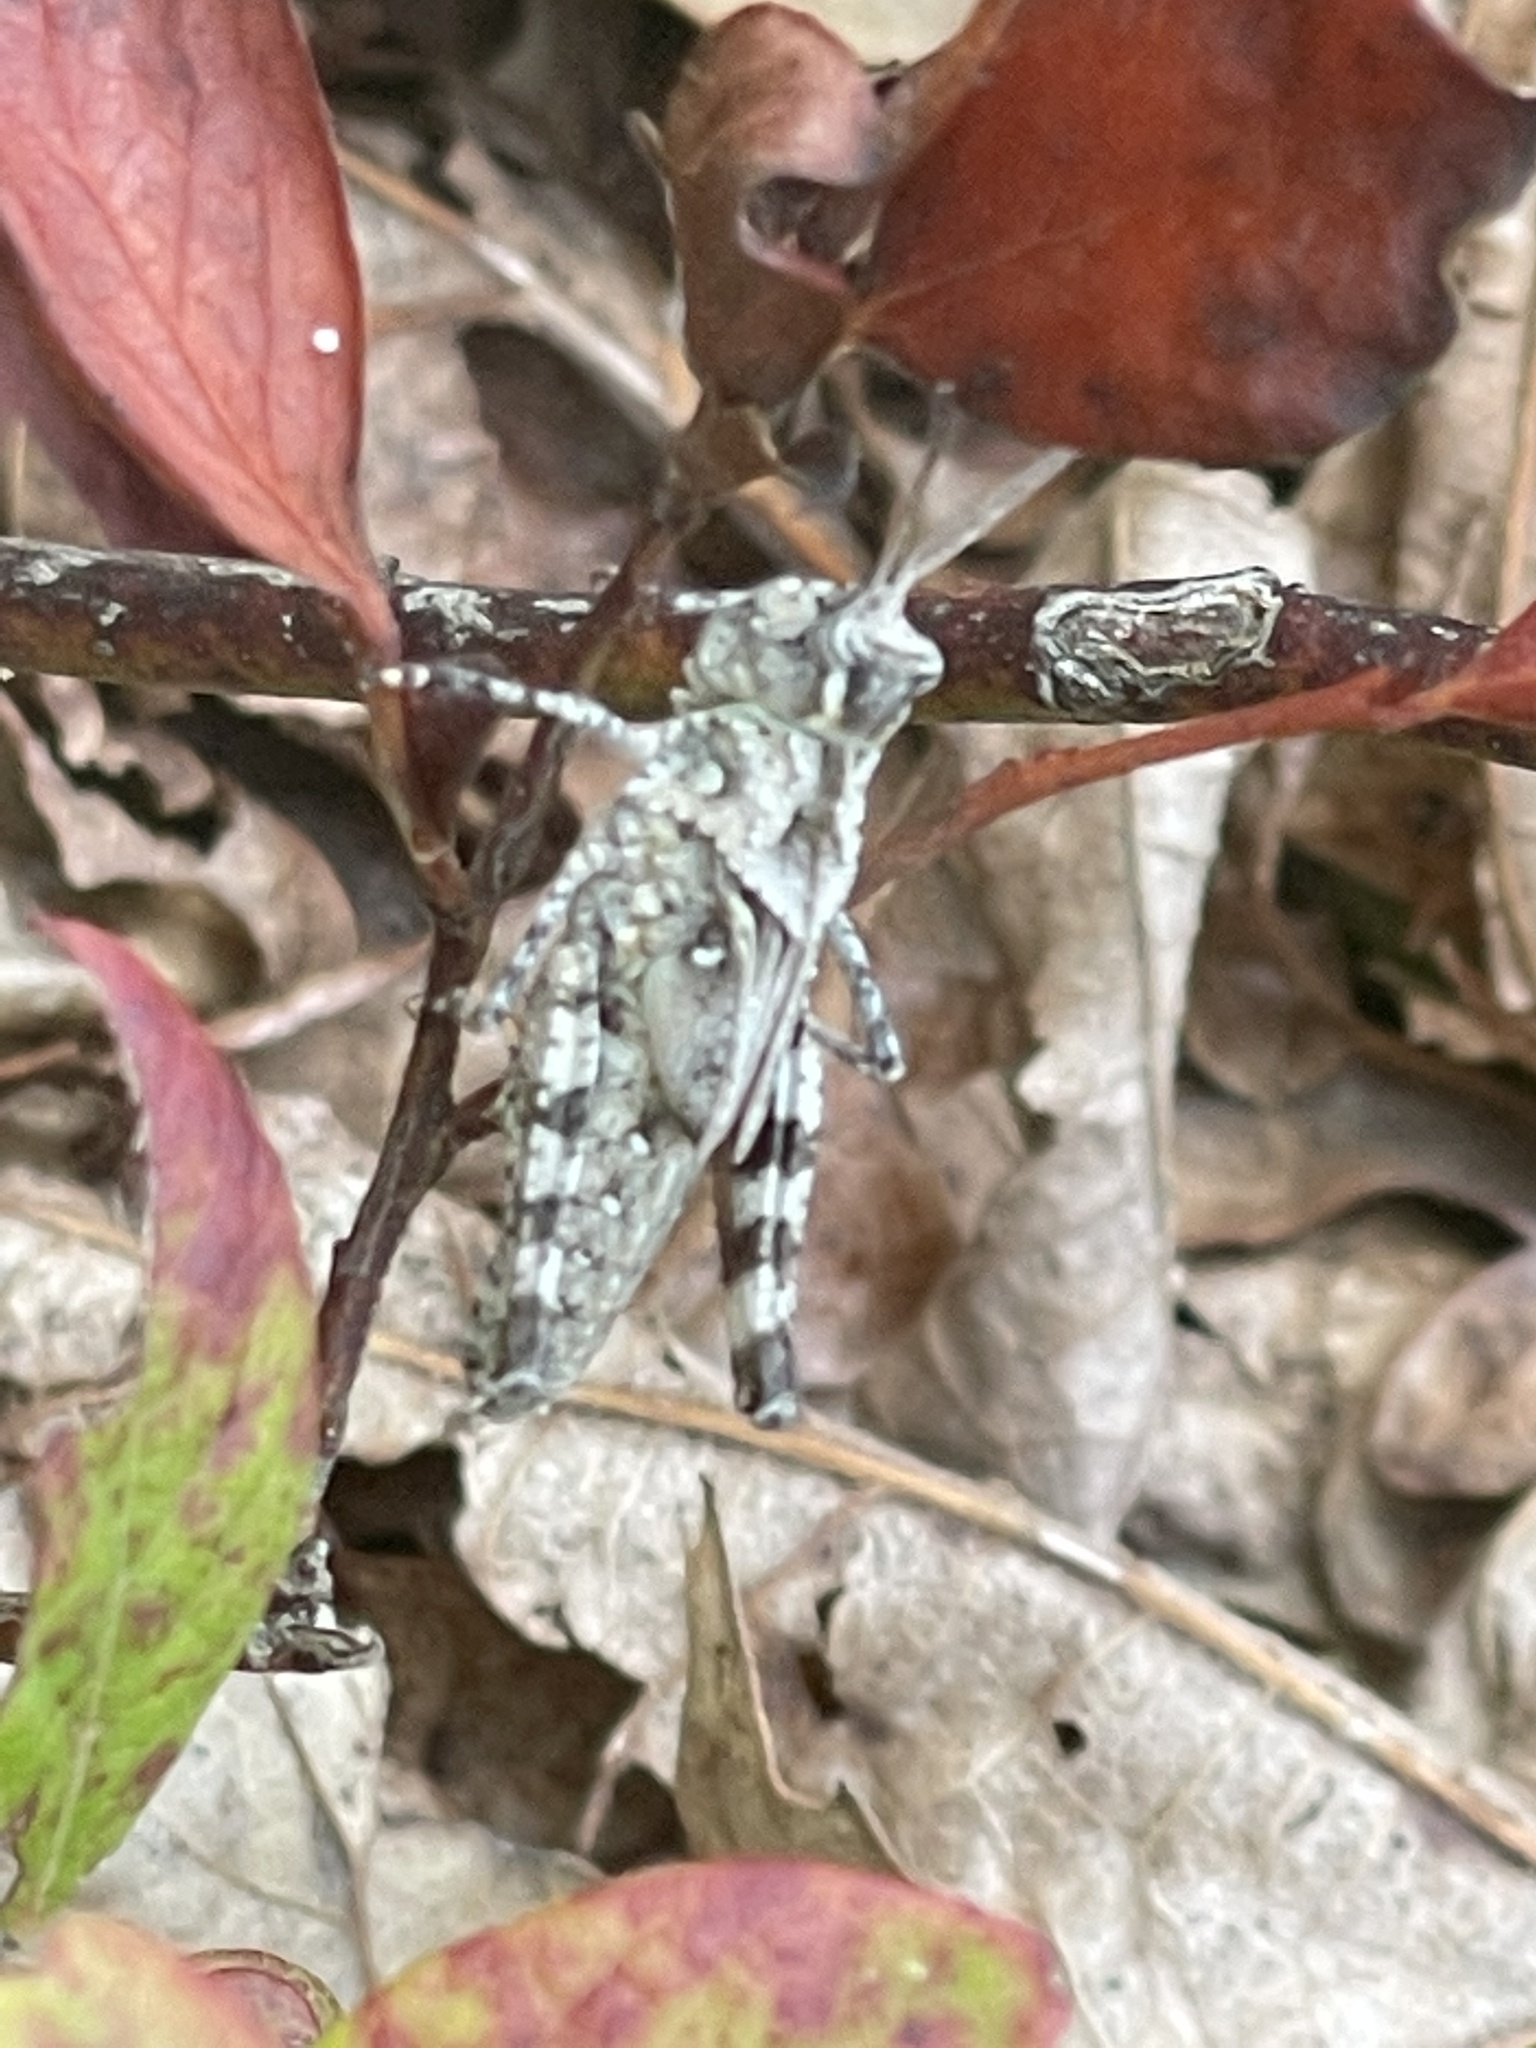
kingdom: Animalia
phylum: Arthropoda
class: Insecta
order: Orthoptera
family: Acrididae
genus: Psinidia
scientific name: Psinidia fenestralis
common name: Long-horned locust
